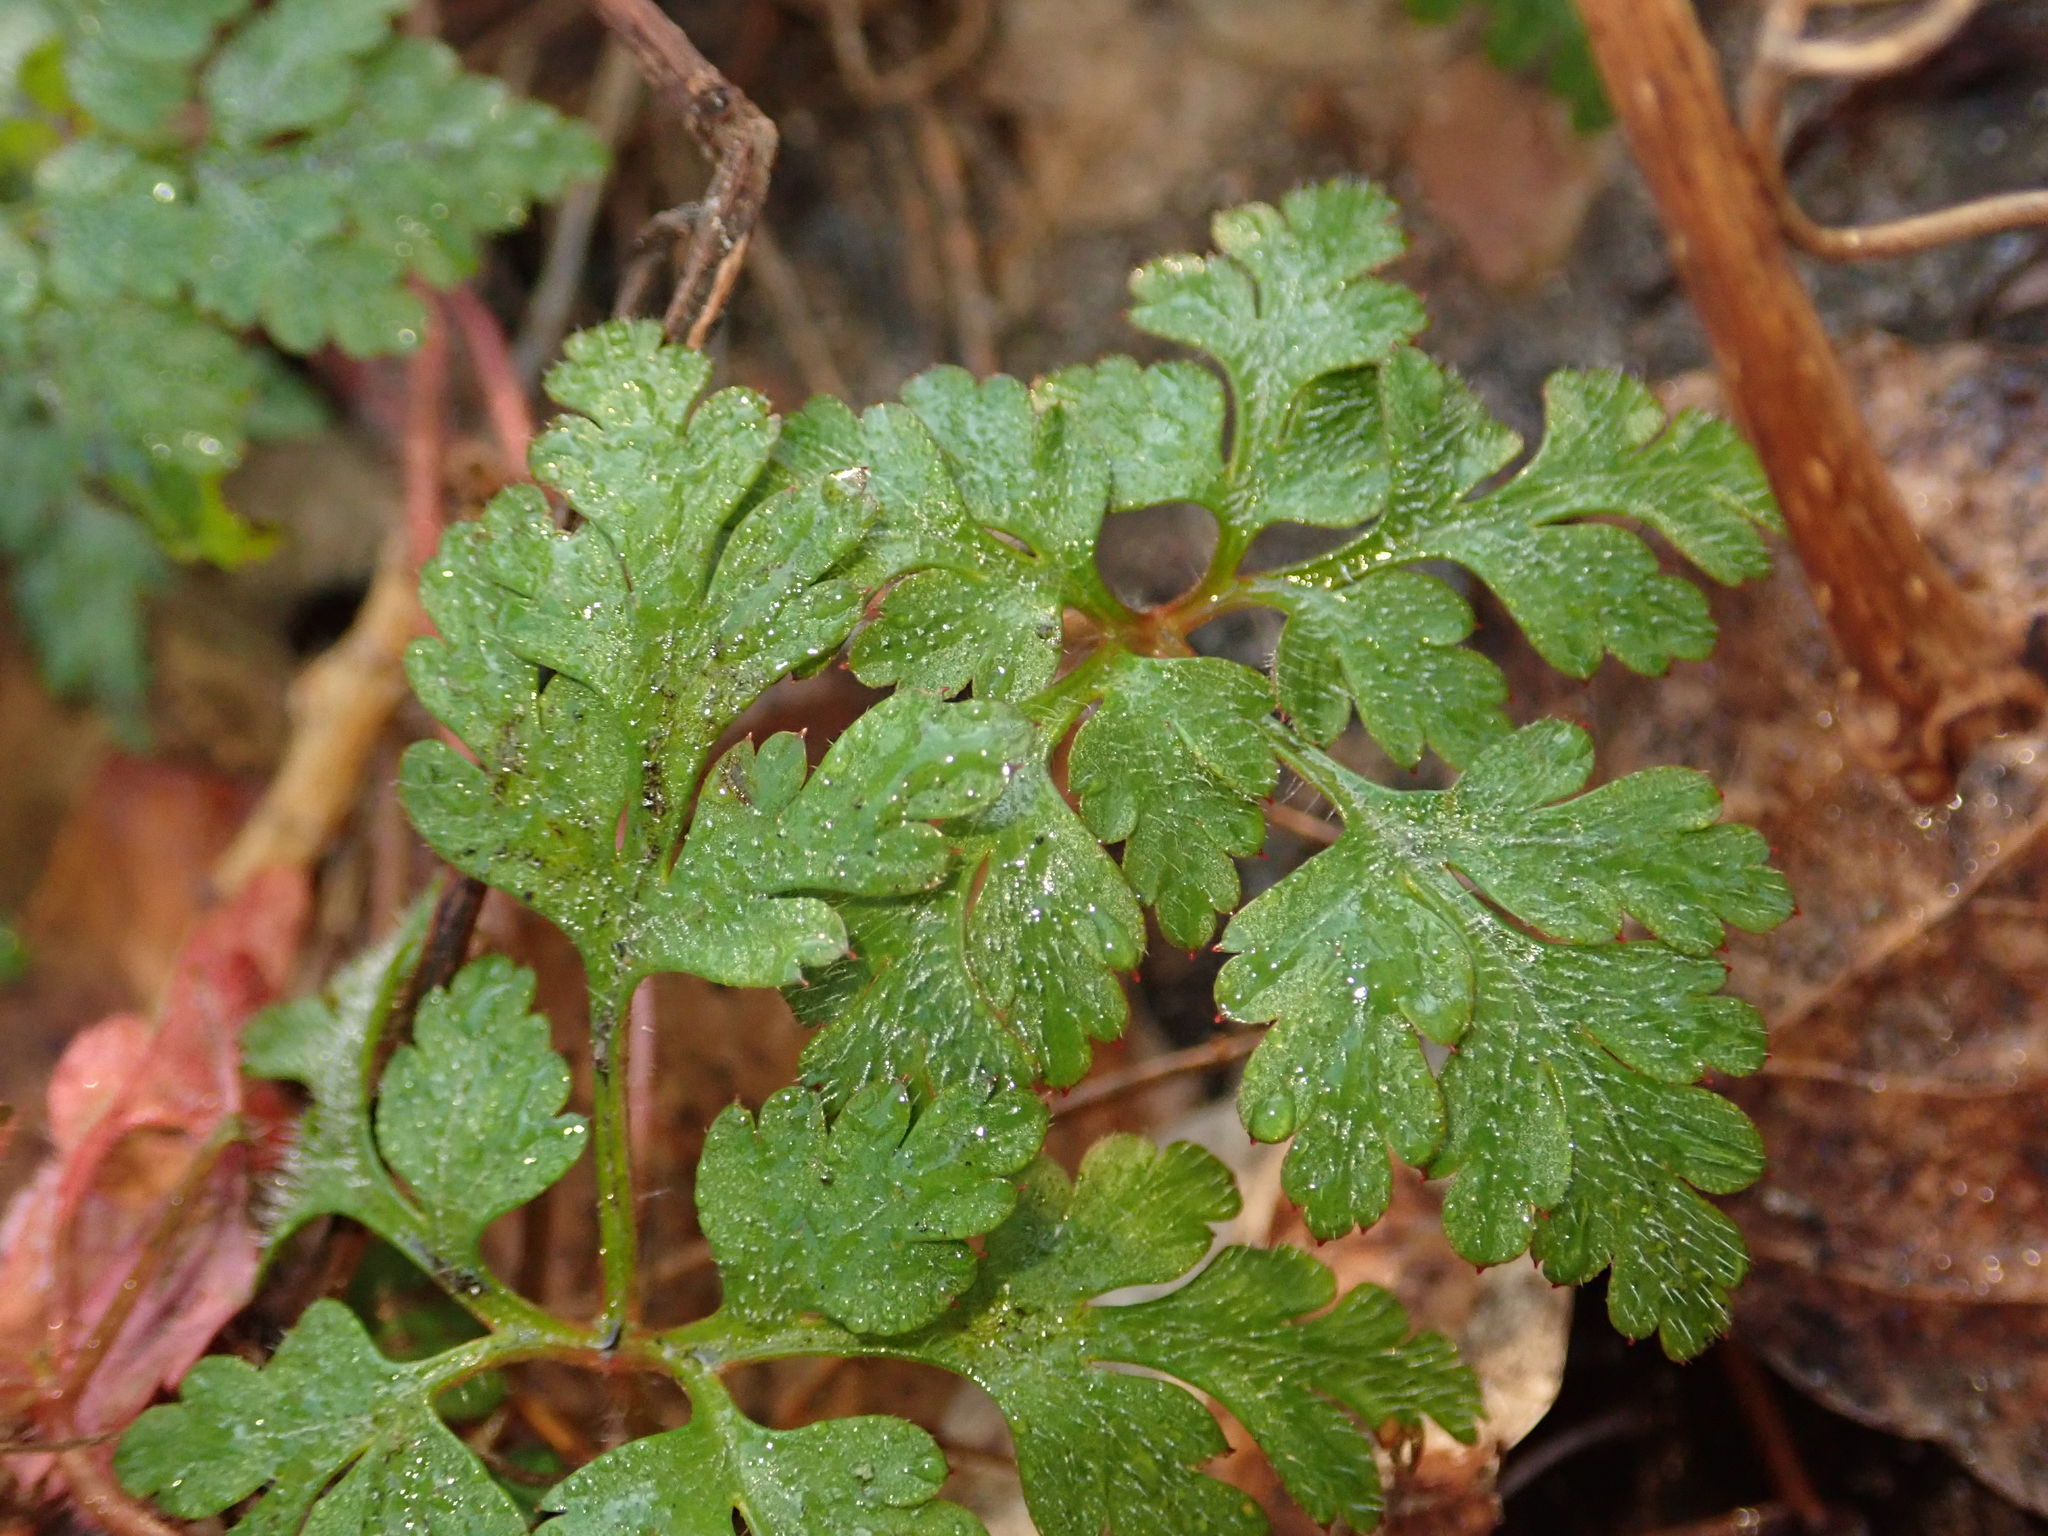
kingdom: Plantae
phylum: Tracheophyta
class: Magnoliopsida
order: Geraniales
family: Geraniaceae
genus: Geranium
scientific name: Geranium robertianum
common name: Herb-robert
